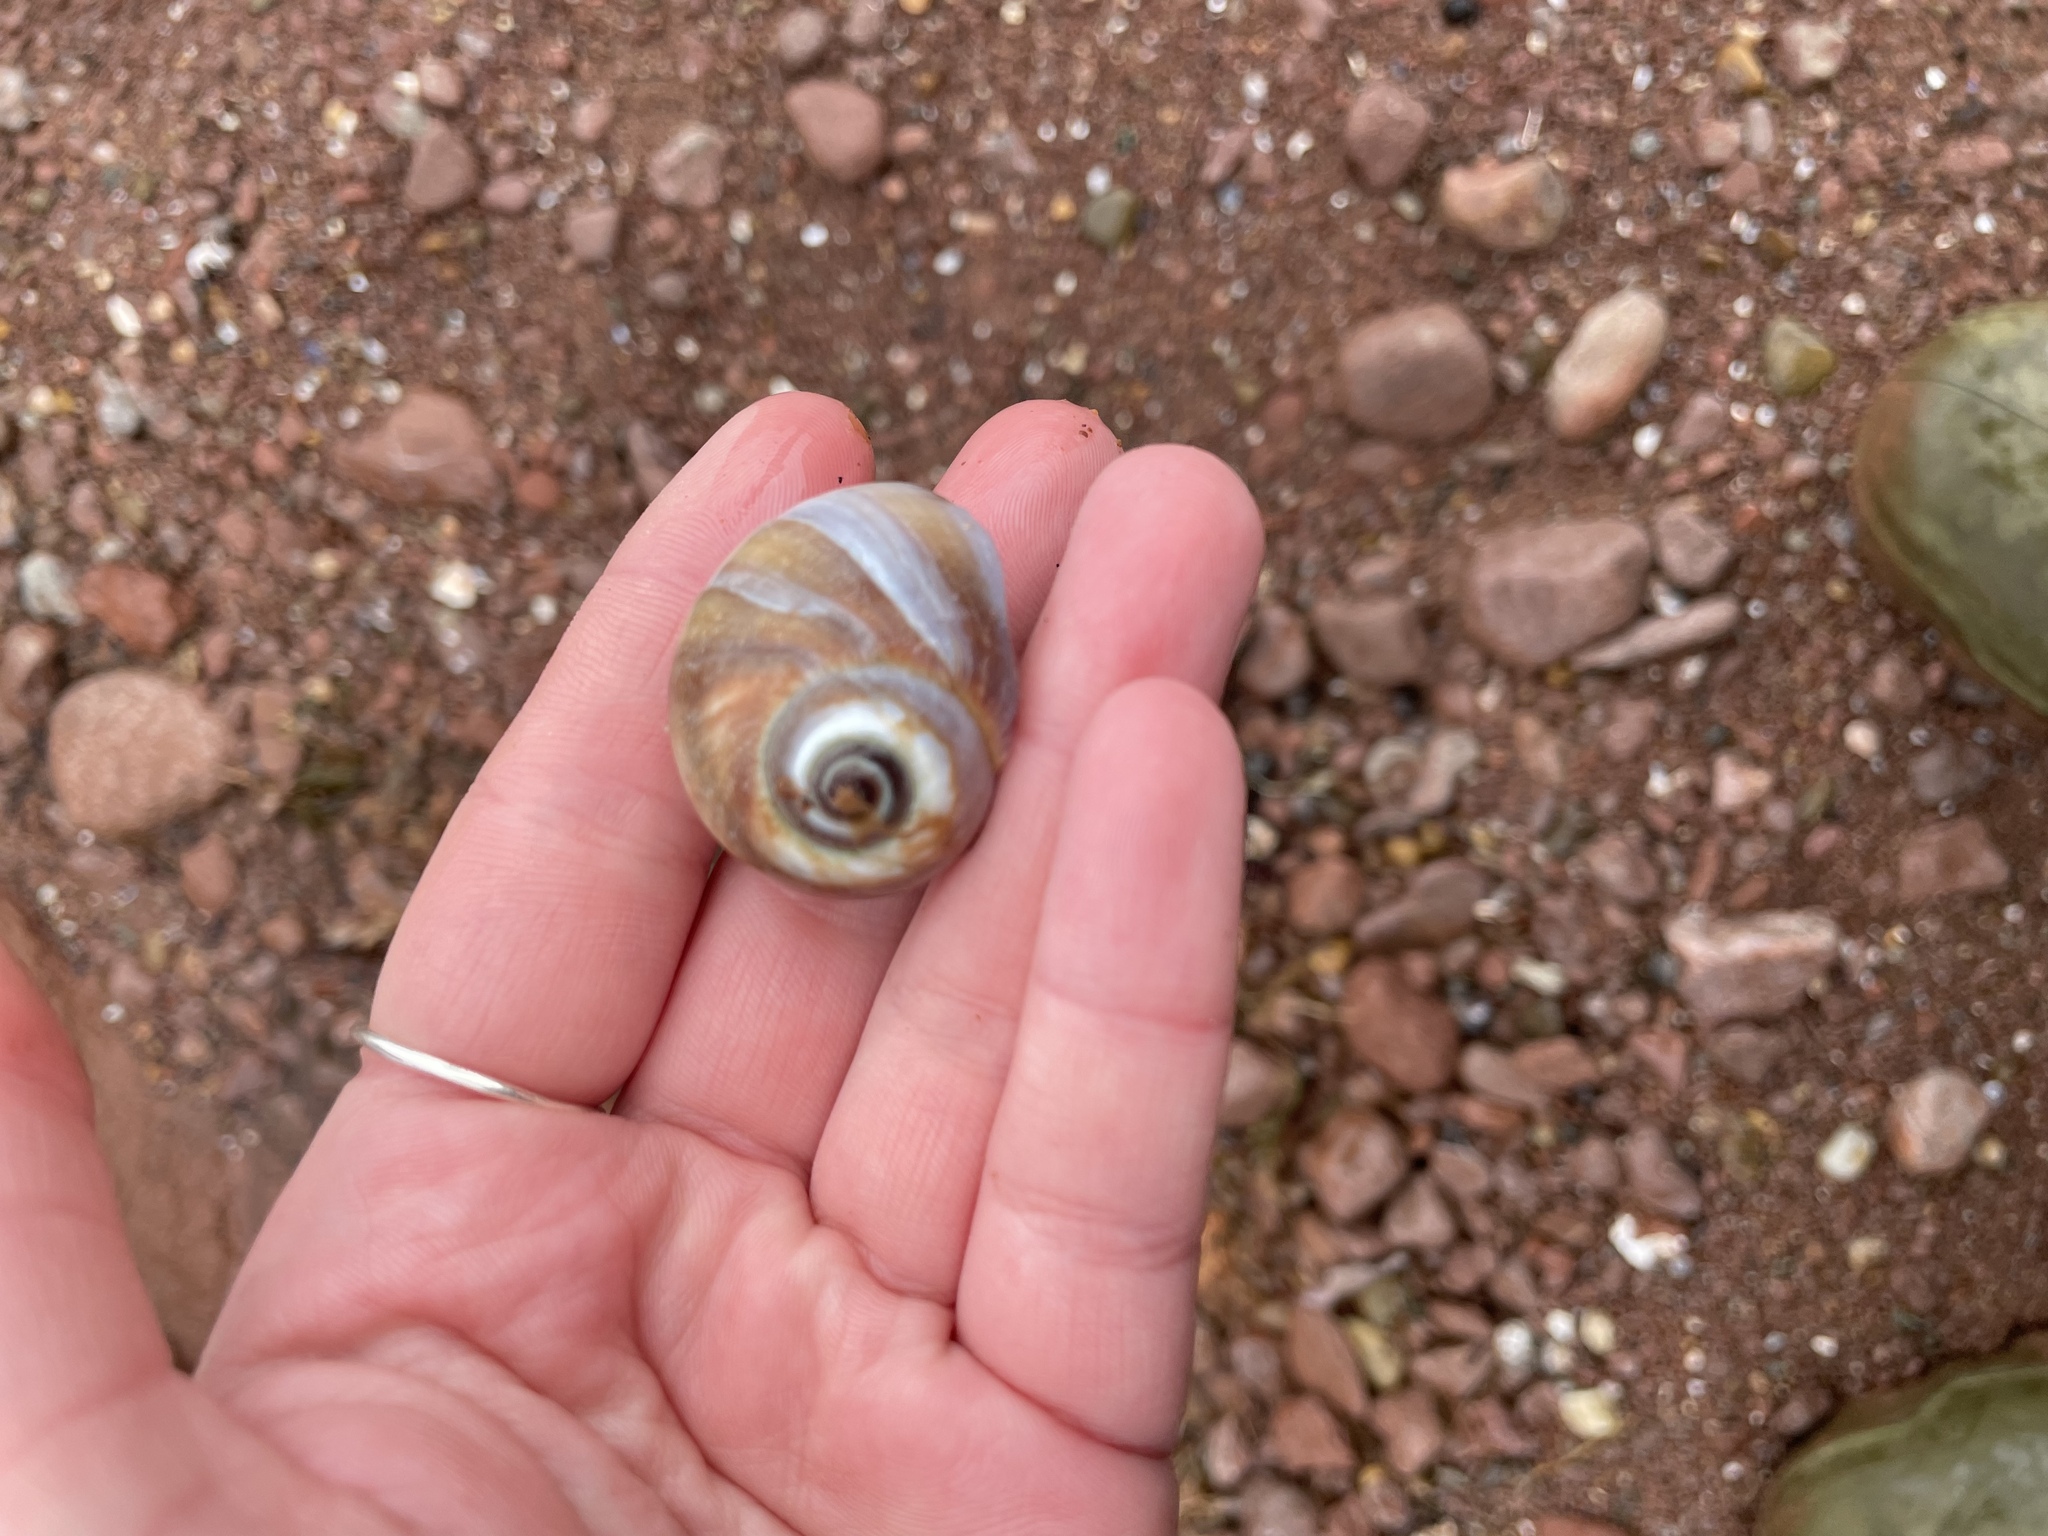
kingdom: Animalia
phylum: Mollusca
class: Gastropoda
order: Littorinimorpha
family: Naticidae
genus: Euspira
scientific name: Euspira heros
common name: Common northern moonsnail
